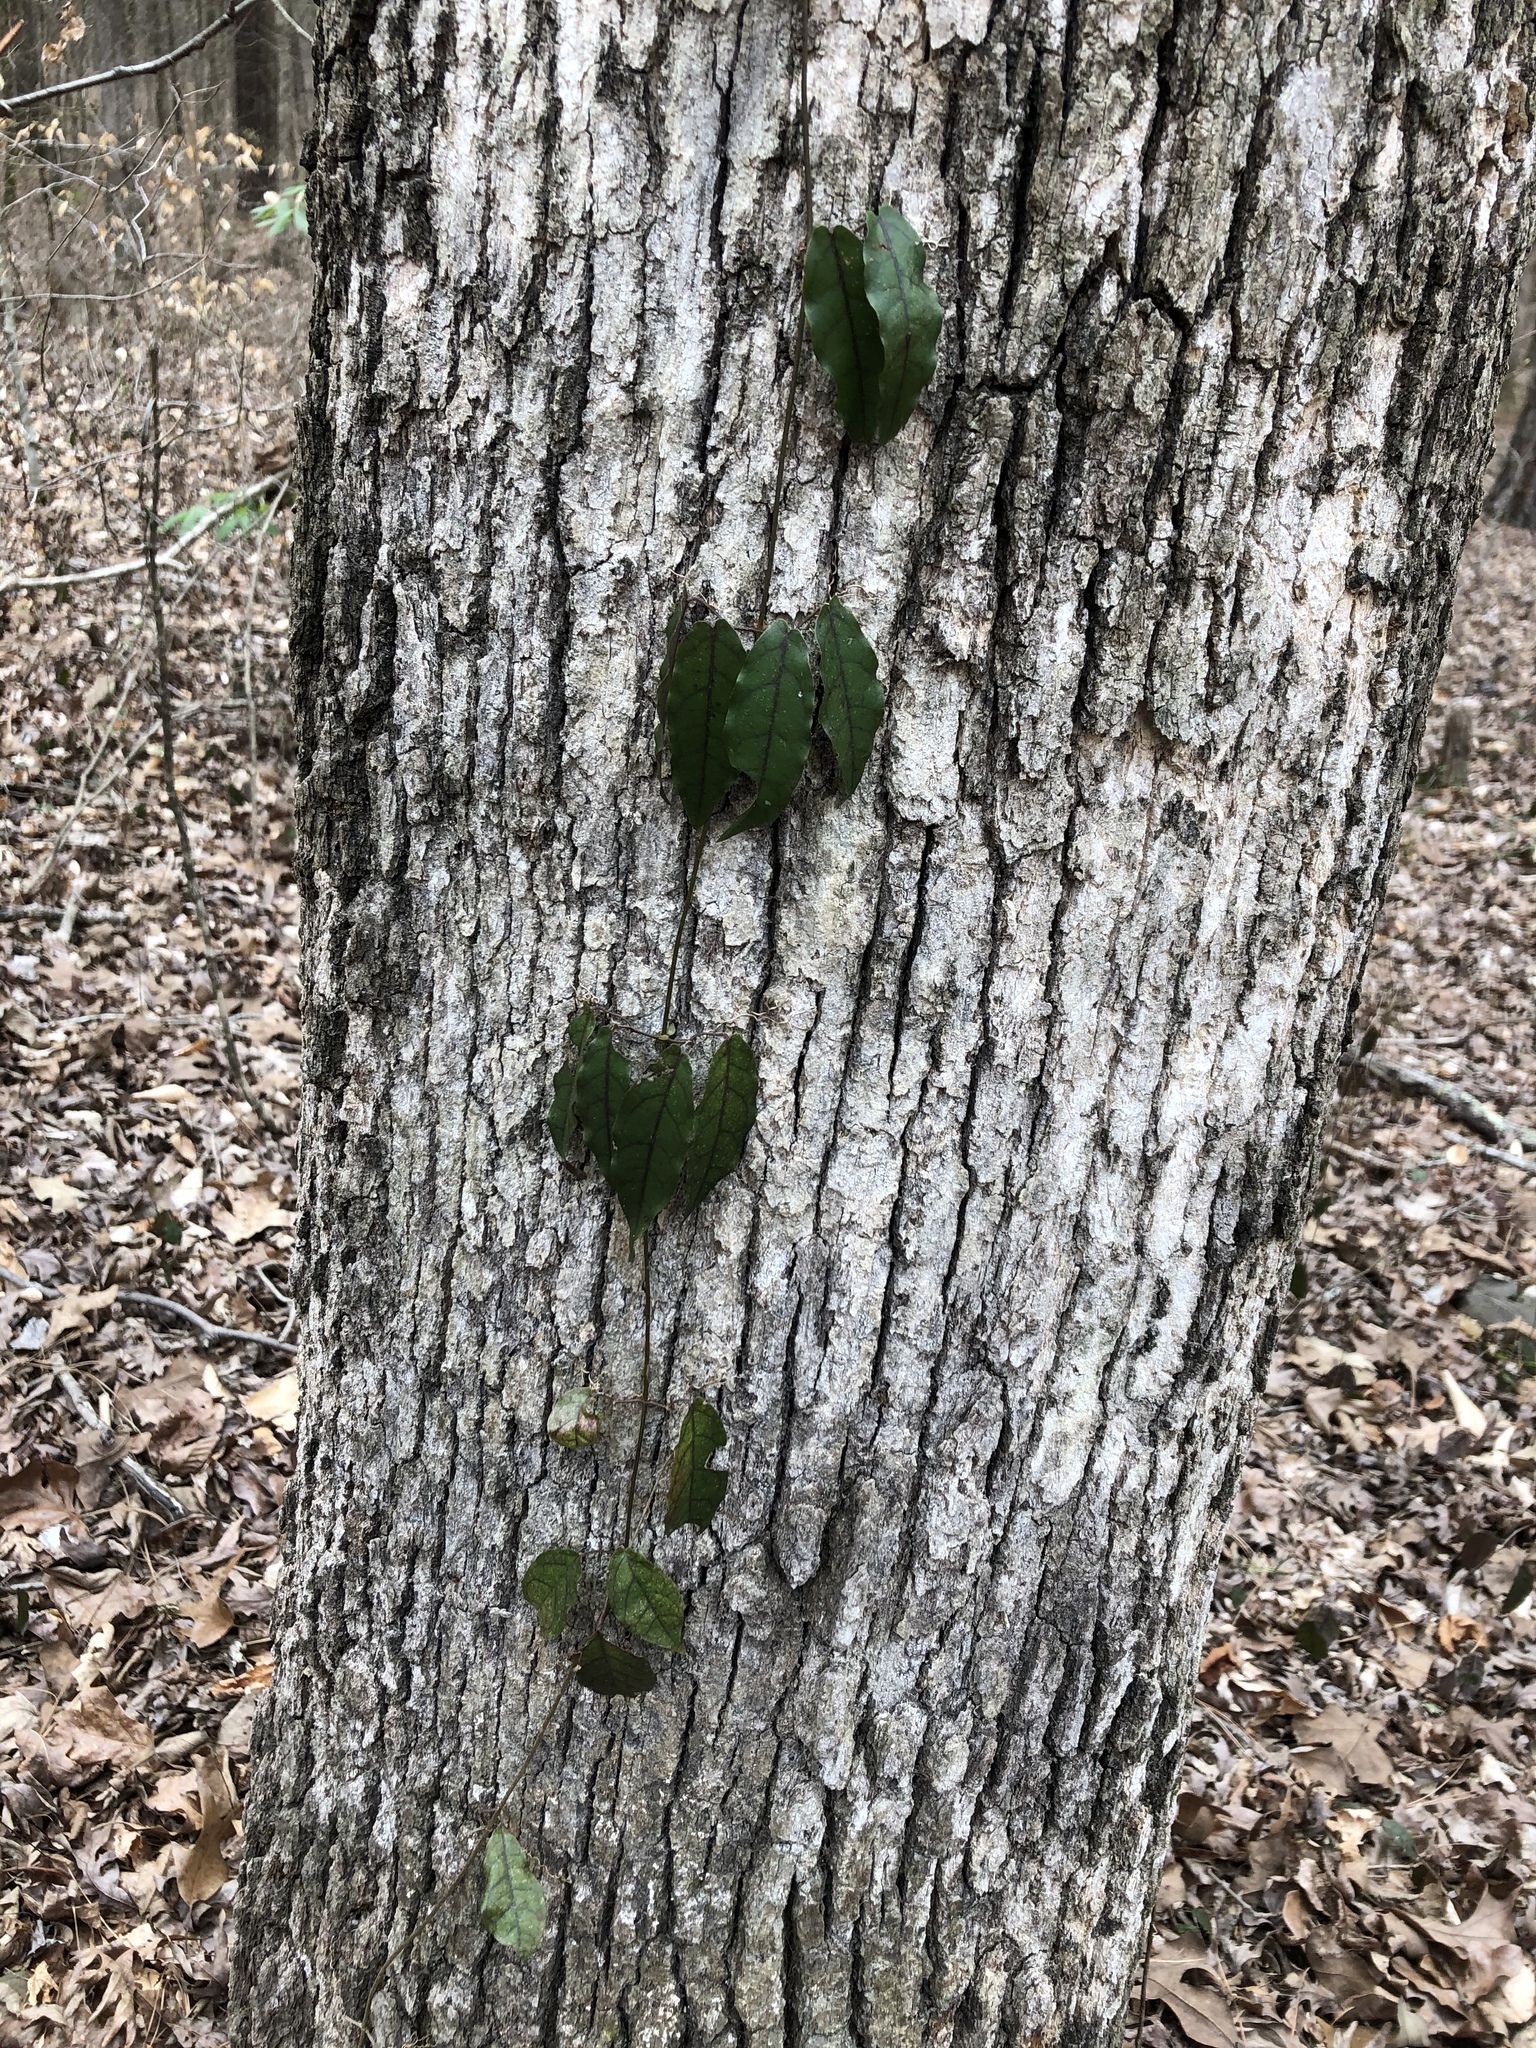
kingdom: Plantae
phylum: Tracheophyta
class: Magnoliopsida
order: Lamiales
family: Bignoniaceae
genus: Bignonia
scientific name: Bignonia capreolata
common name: Crossvine
